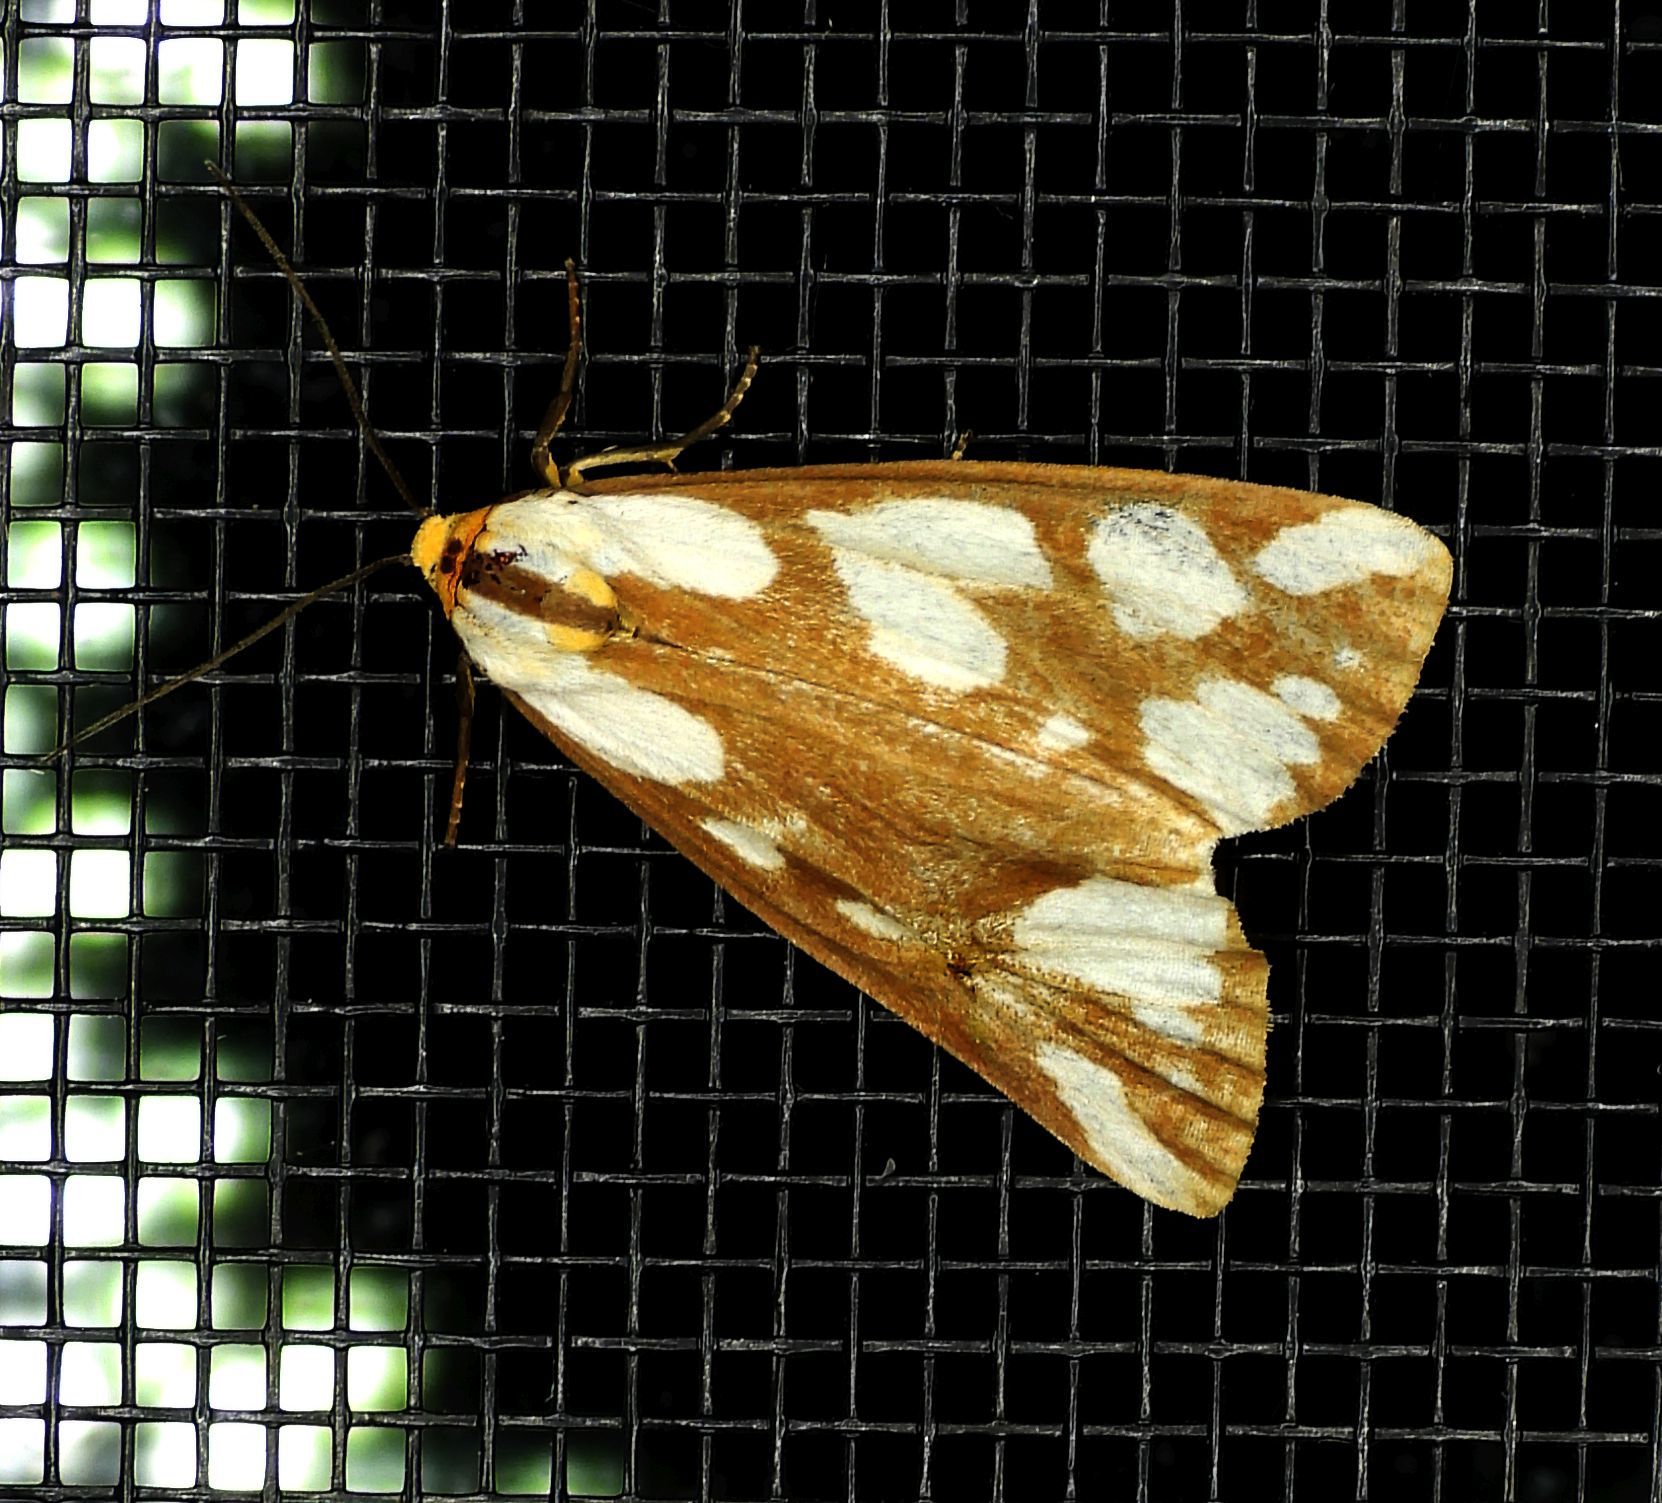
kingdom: Animalia
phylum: Arthropoda
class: Insecta
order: Lepidoptera
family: Erebidae
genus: Haploa
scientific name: Haploa confusa
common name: Confused haploa moth
